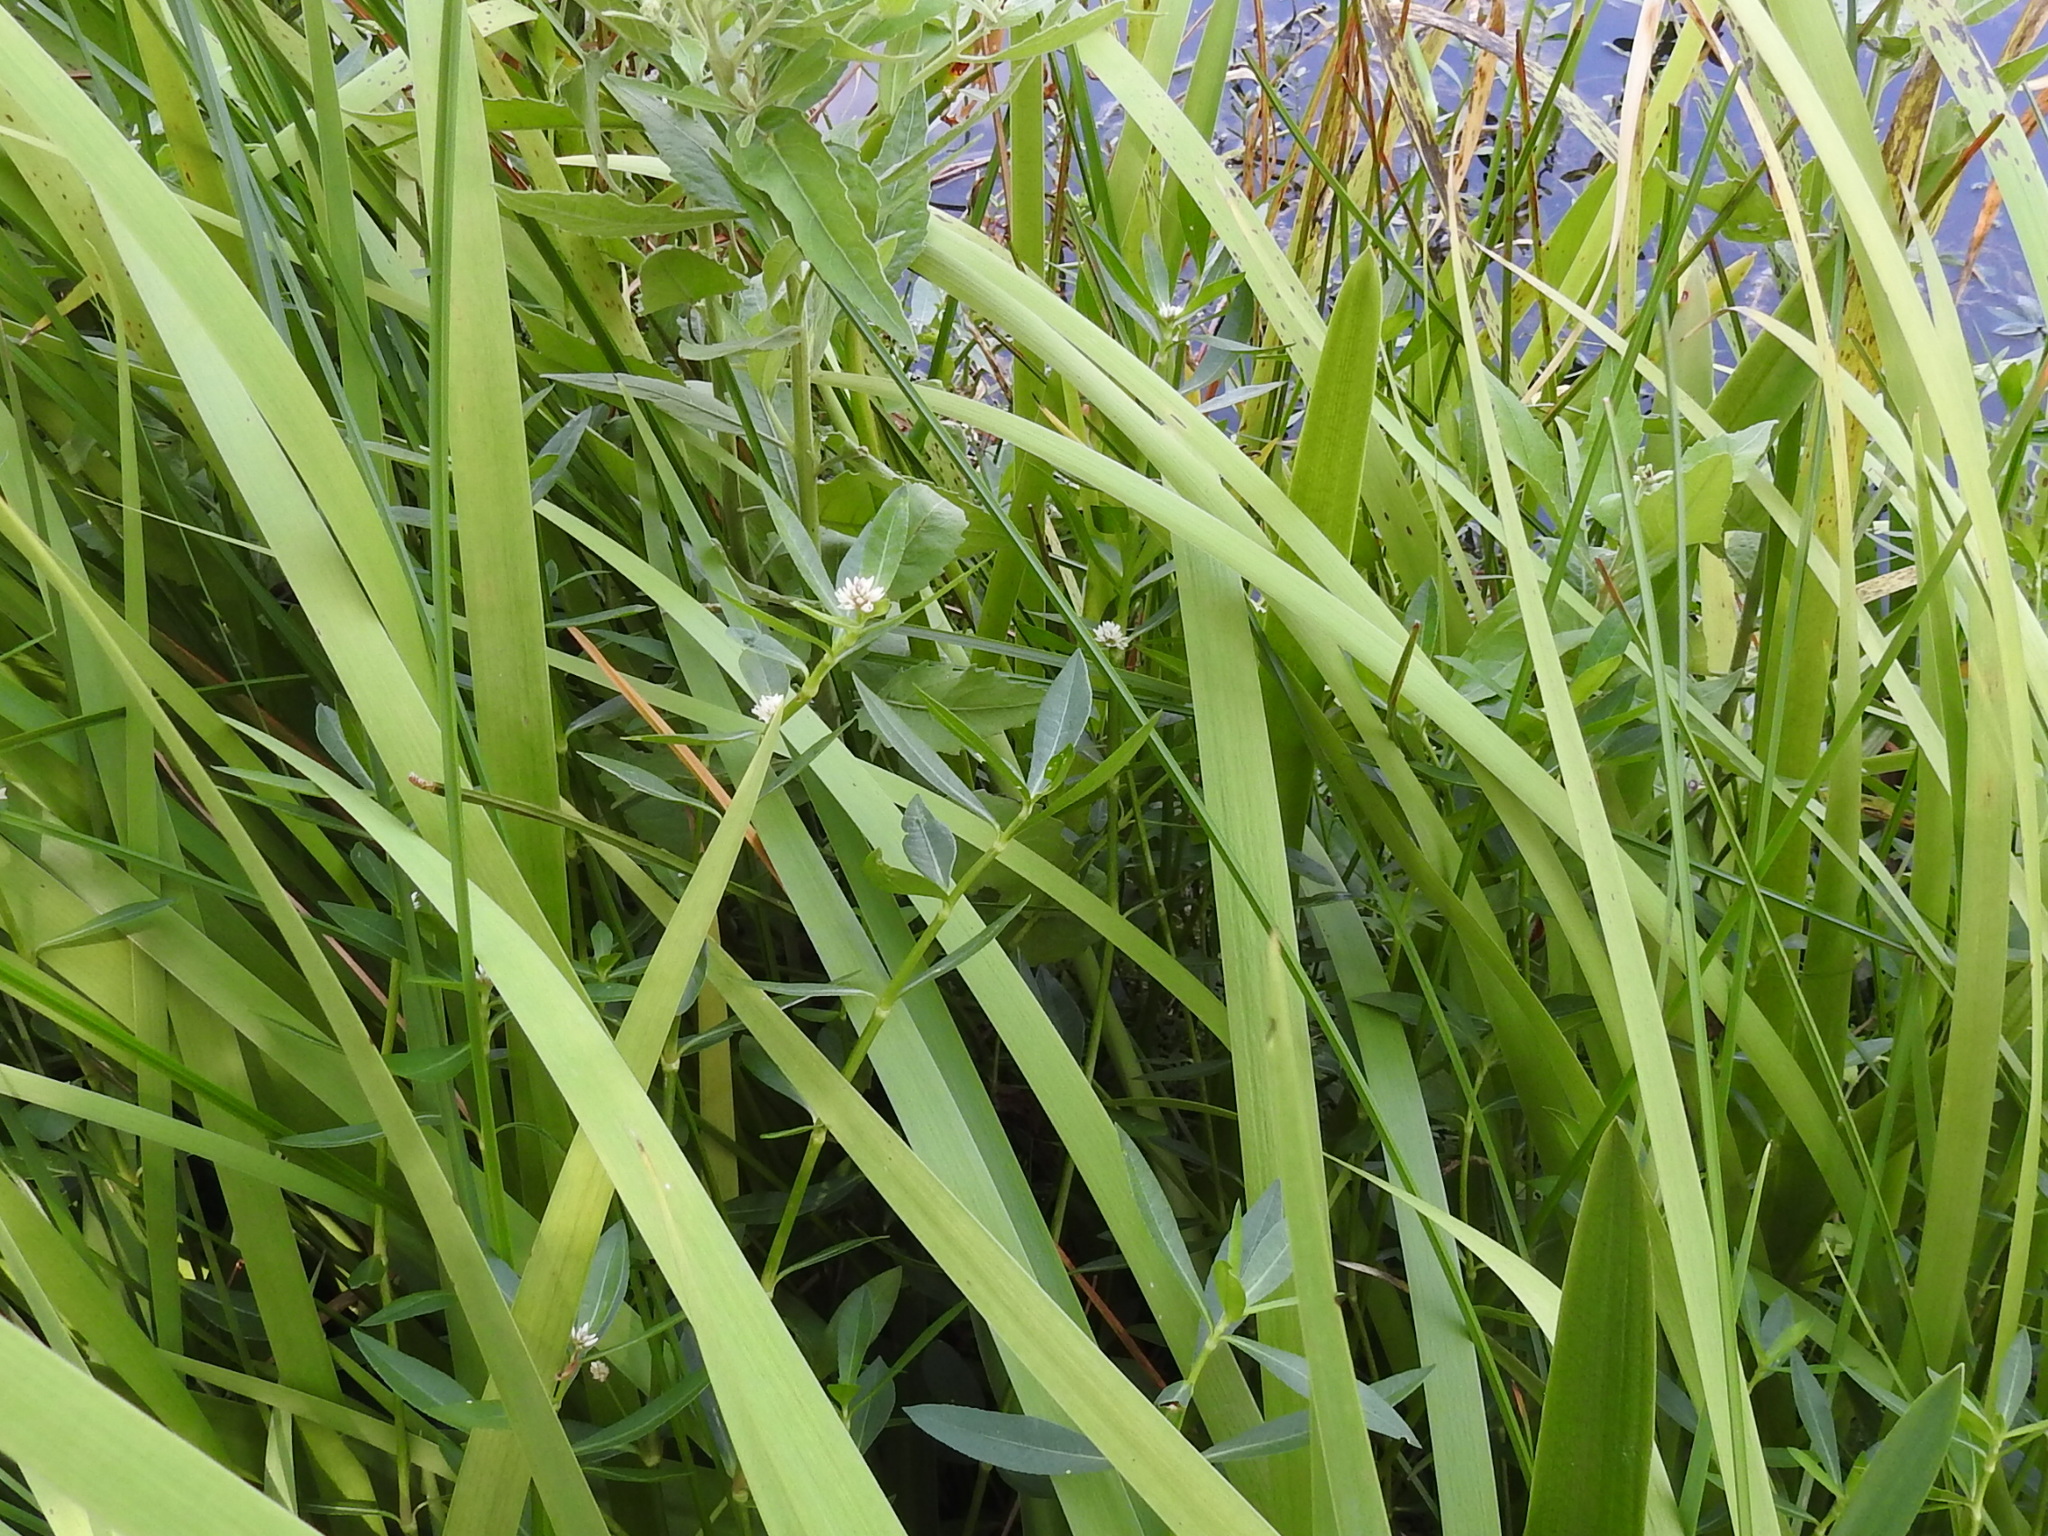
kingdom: Plantae
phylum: Tracheophyta
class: Magnoliopsida
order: Caryophyllales
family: Amaranthaceae
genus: Alternanthera
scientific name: Alternanthera philoxeroides
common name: Alligatorweed
